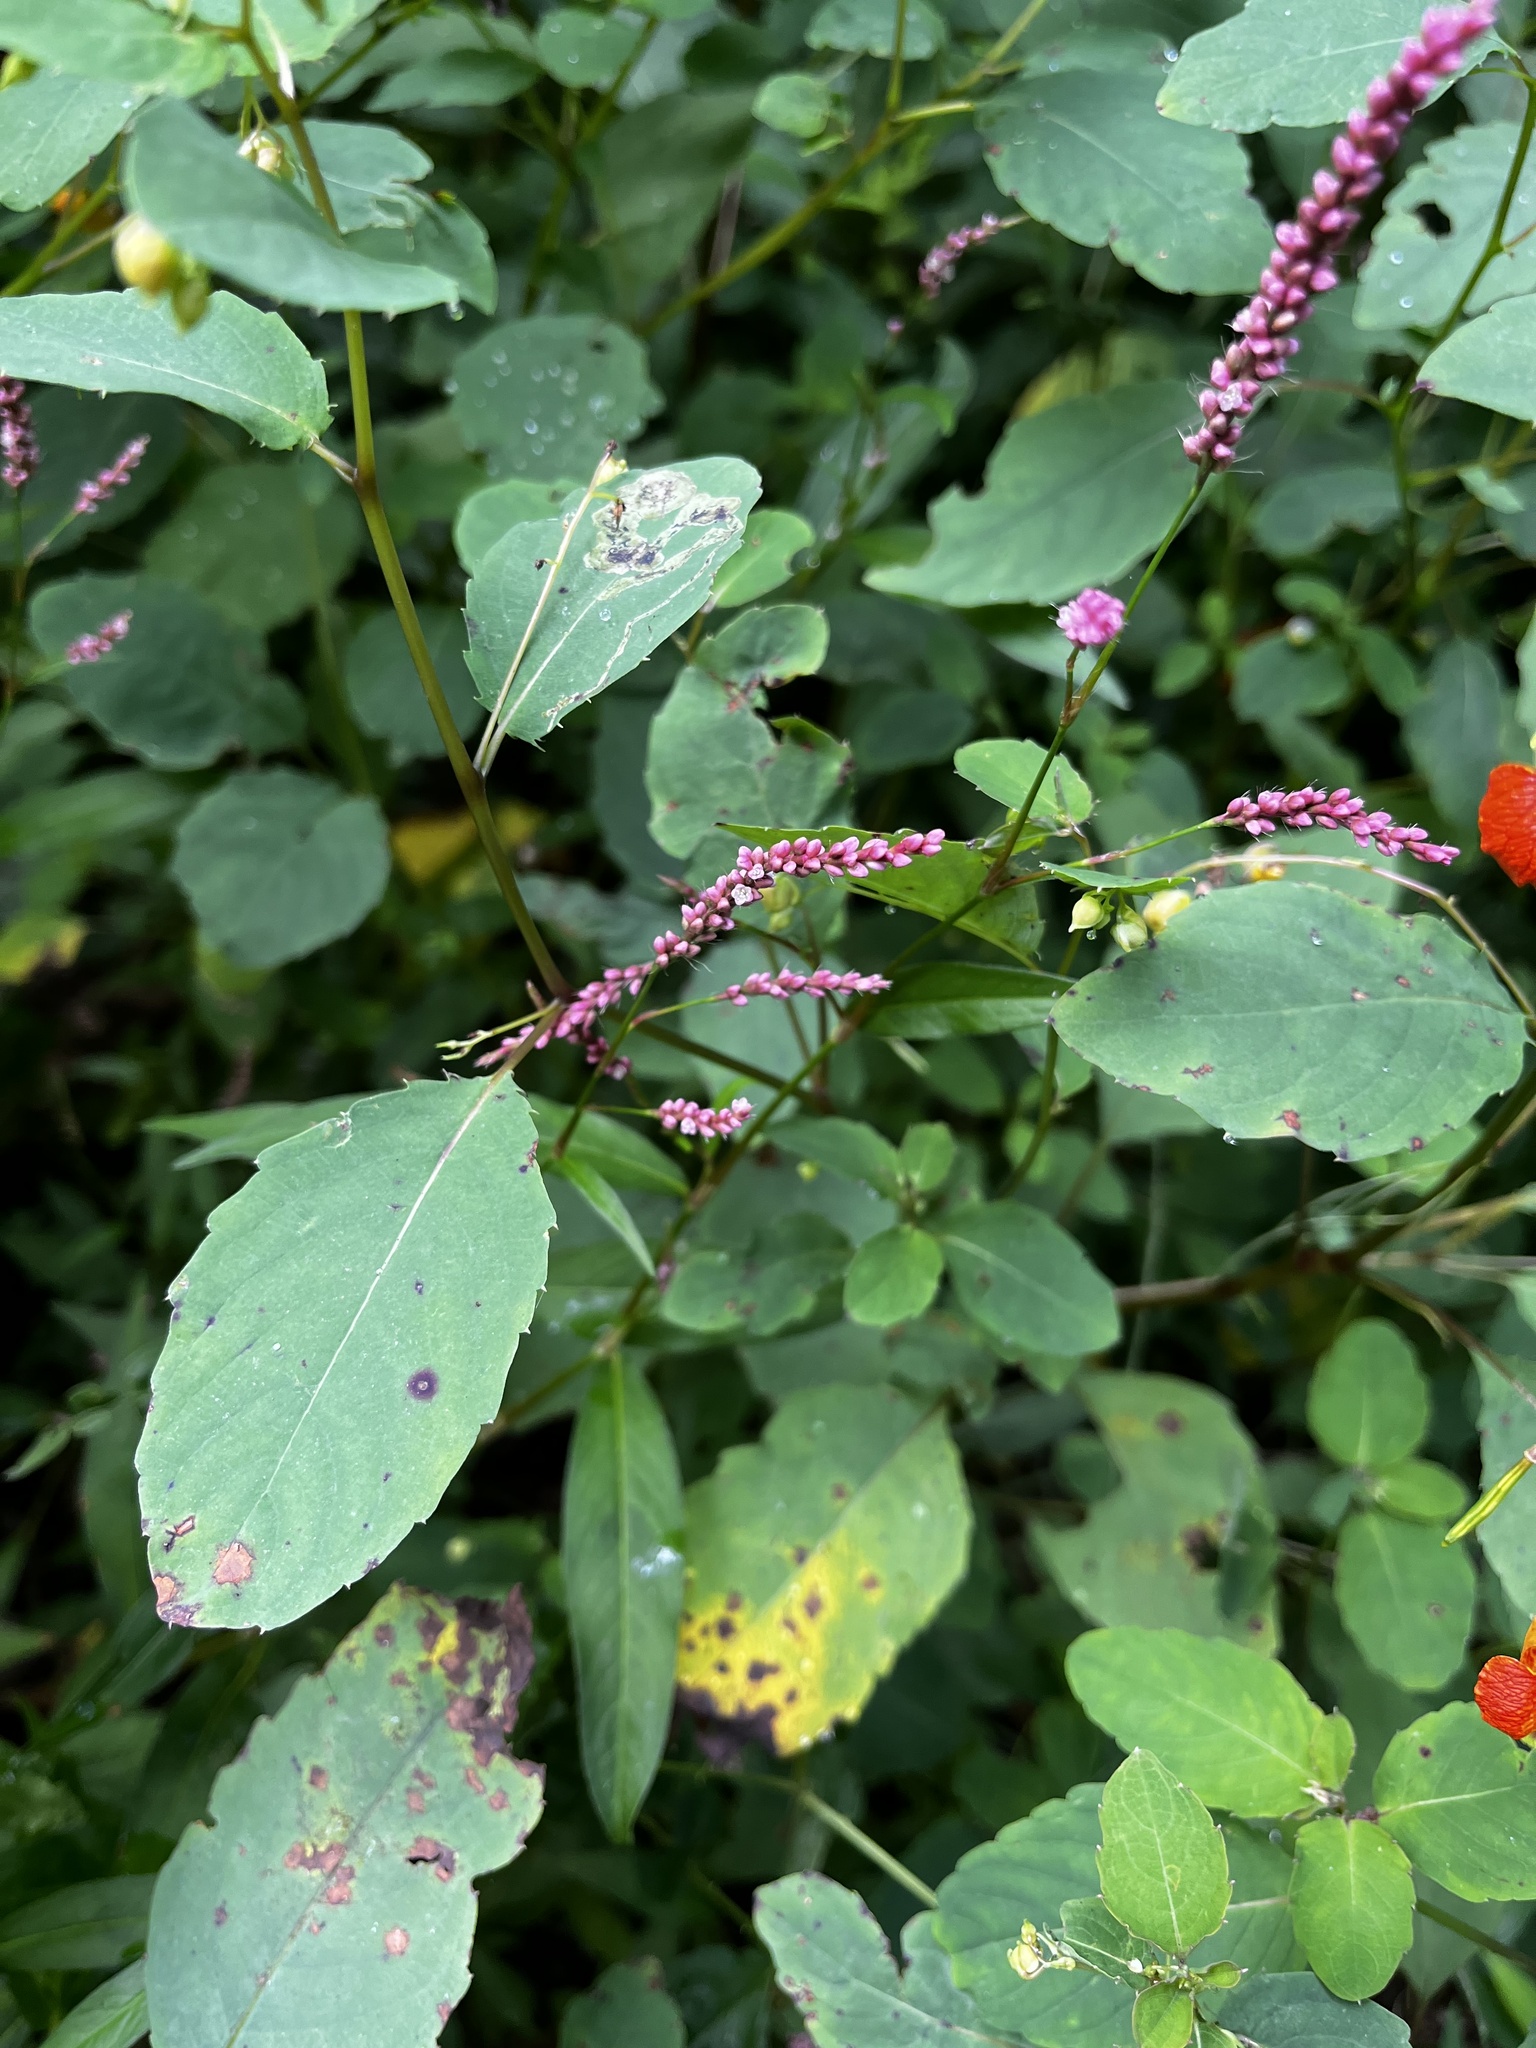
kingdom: Plantae
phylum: Tracheophyta
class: Magnoliopsida
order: Caryophyllales
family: Polygonaceae
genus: Persicaria
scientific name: Persicaria longiseta
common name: Bristly lady's-thumb
